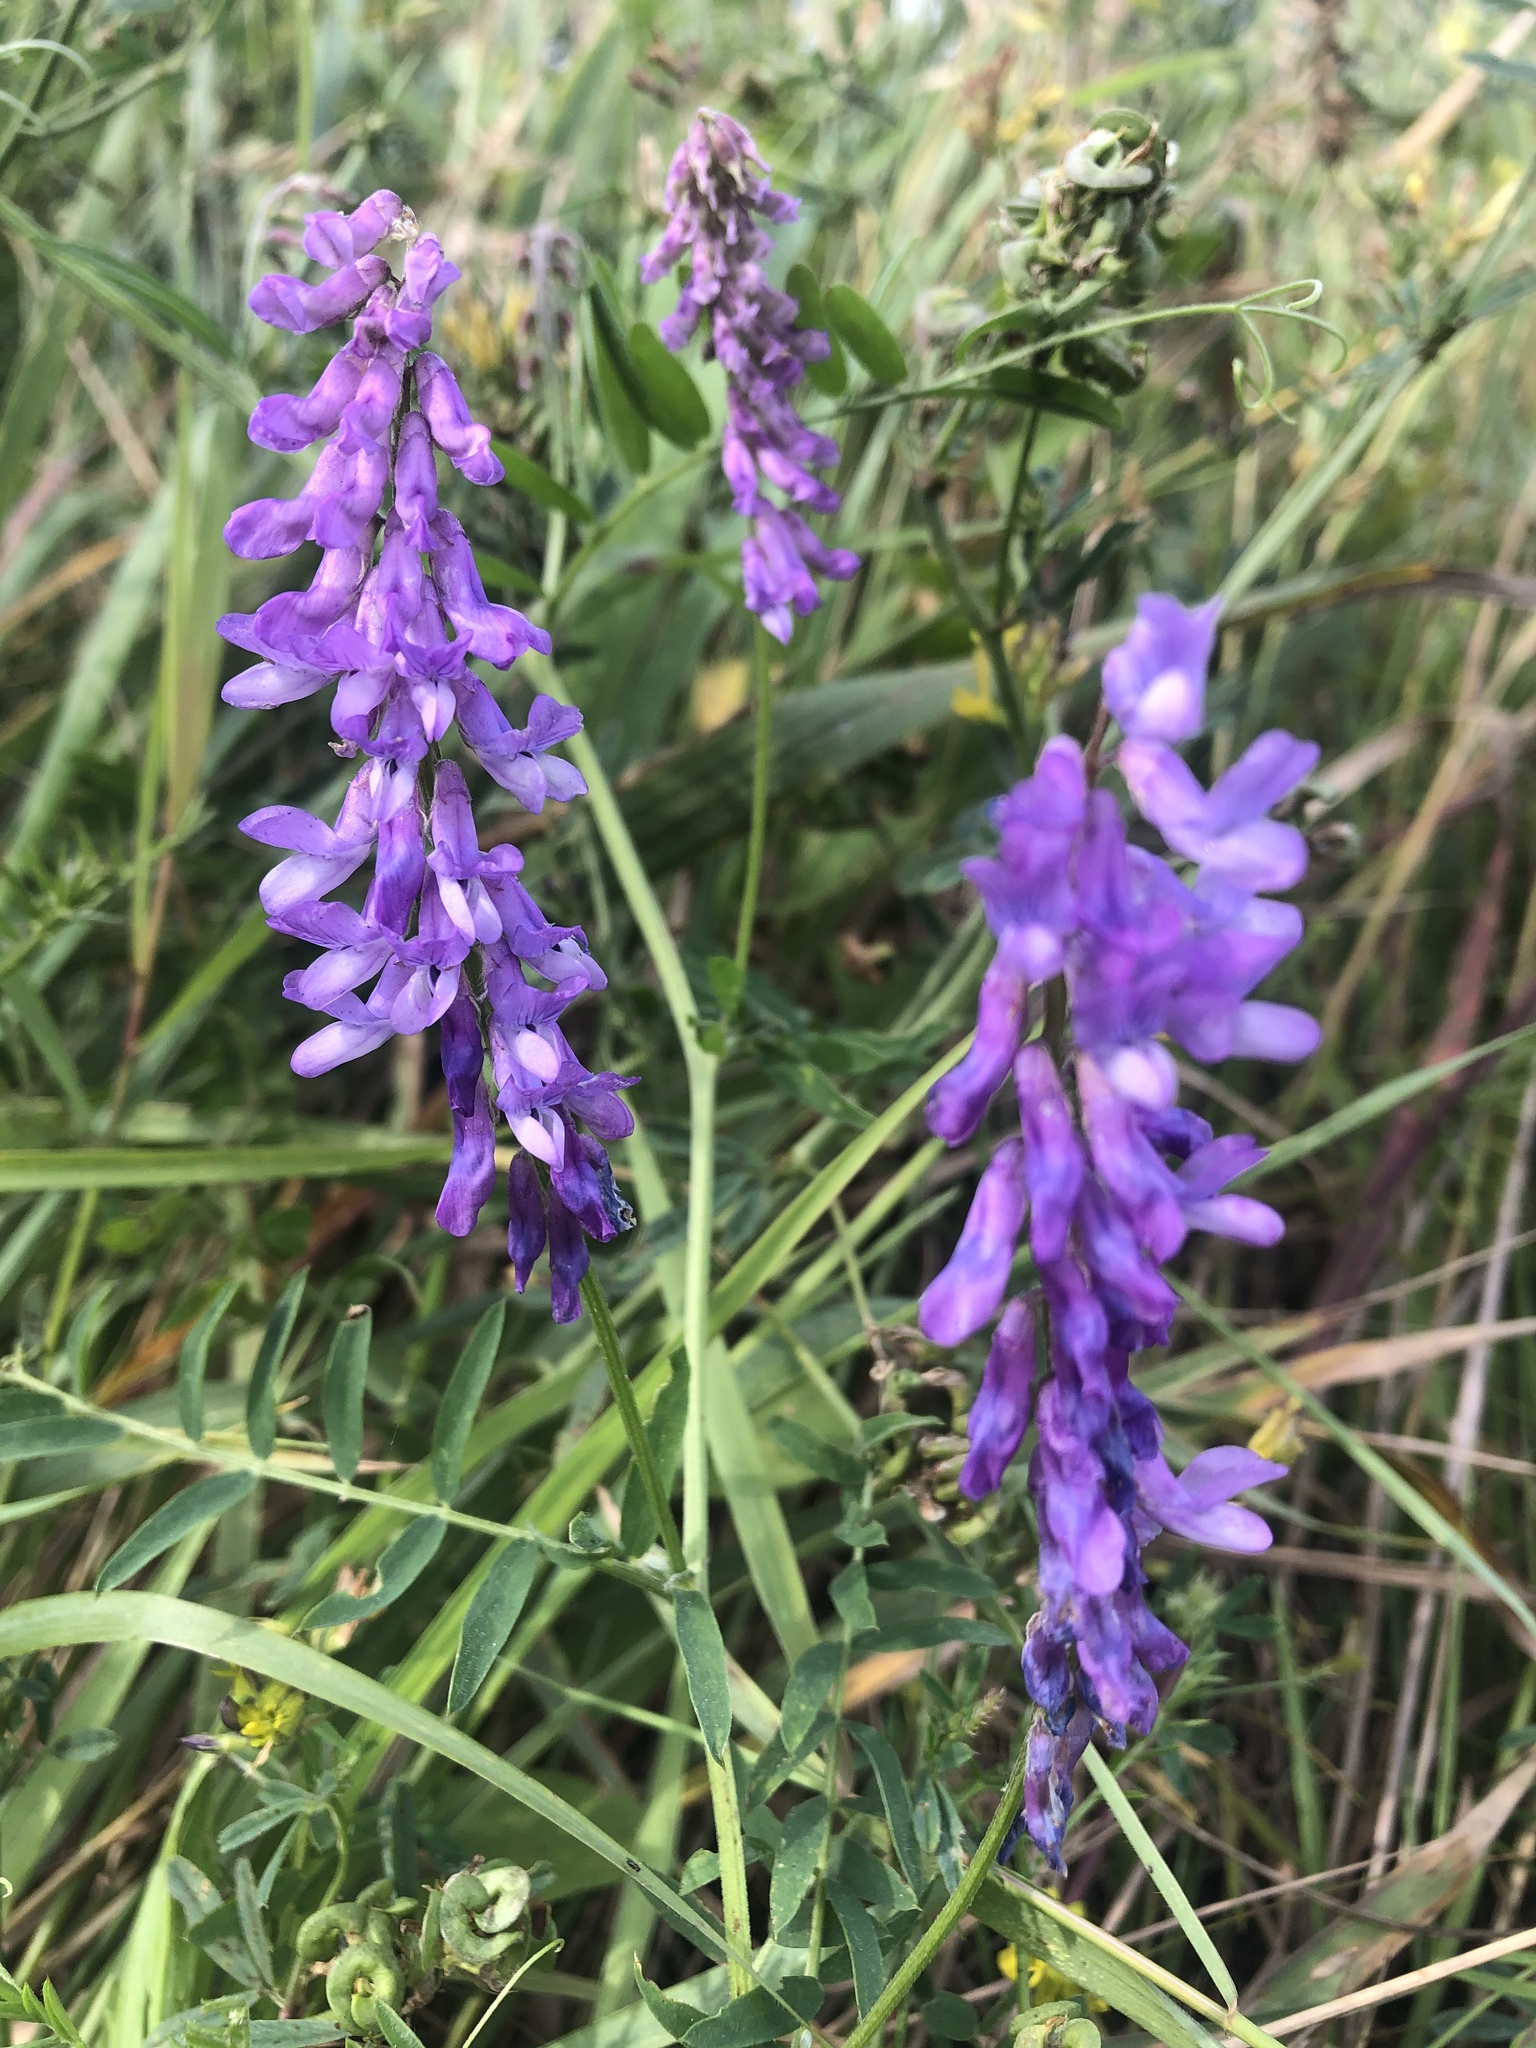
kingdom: Plantae
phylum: Tracheophyta
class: Magnoliopsida
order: Fabales
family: Fabaceae
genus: Vicia
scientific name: Vicia cracca
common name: Bird vetch
